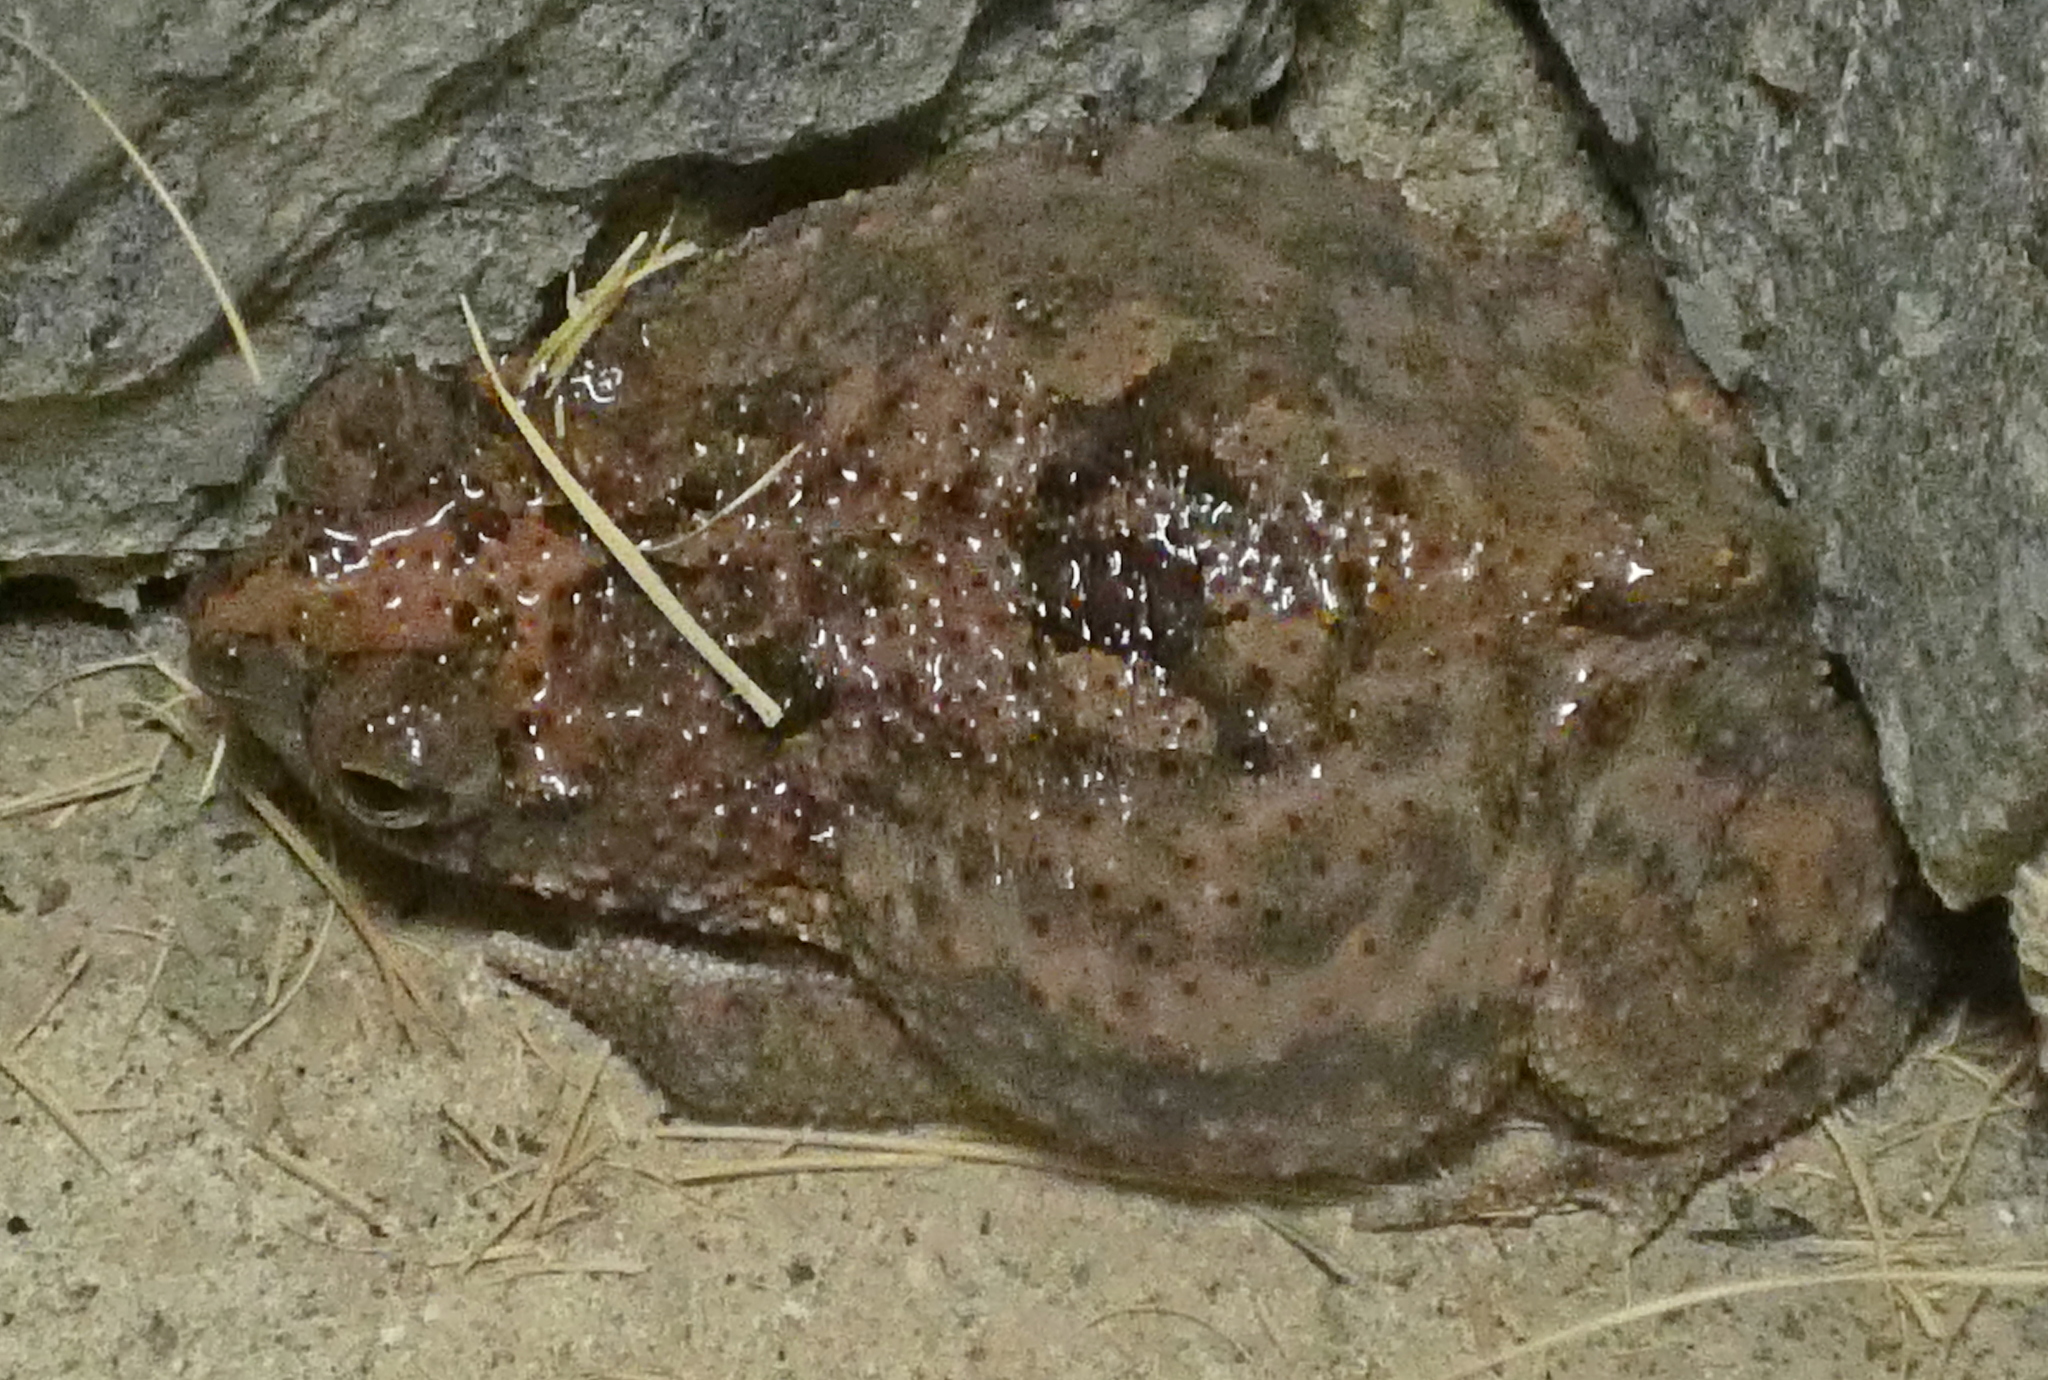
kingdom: Animalia
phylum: Chordata
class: Amphibia
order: Anura
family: Bufonidae
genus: Rhinella
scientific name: Rhinella granulosa
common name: Common lesser toad
